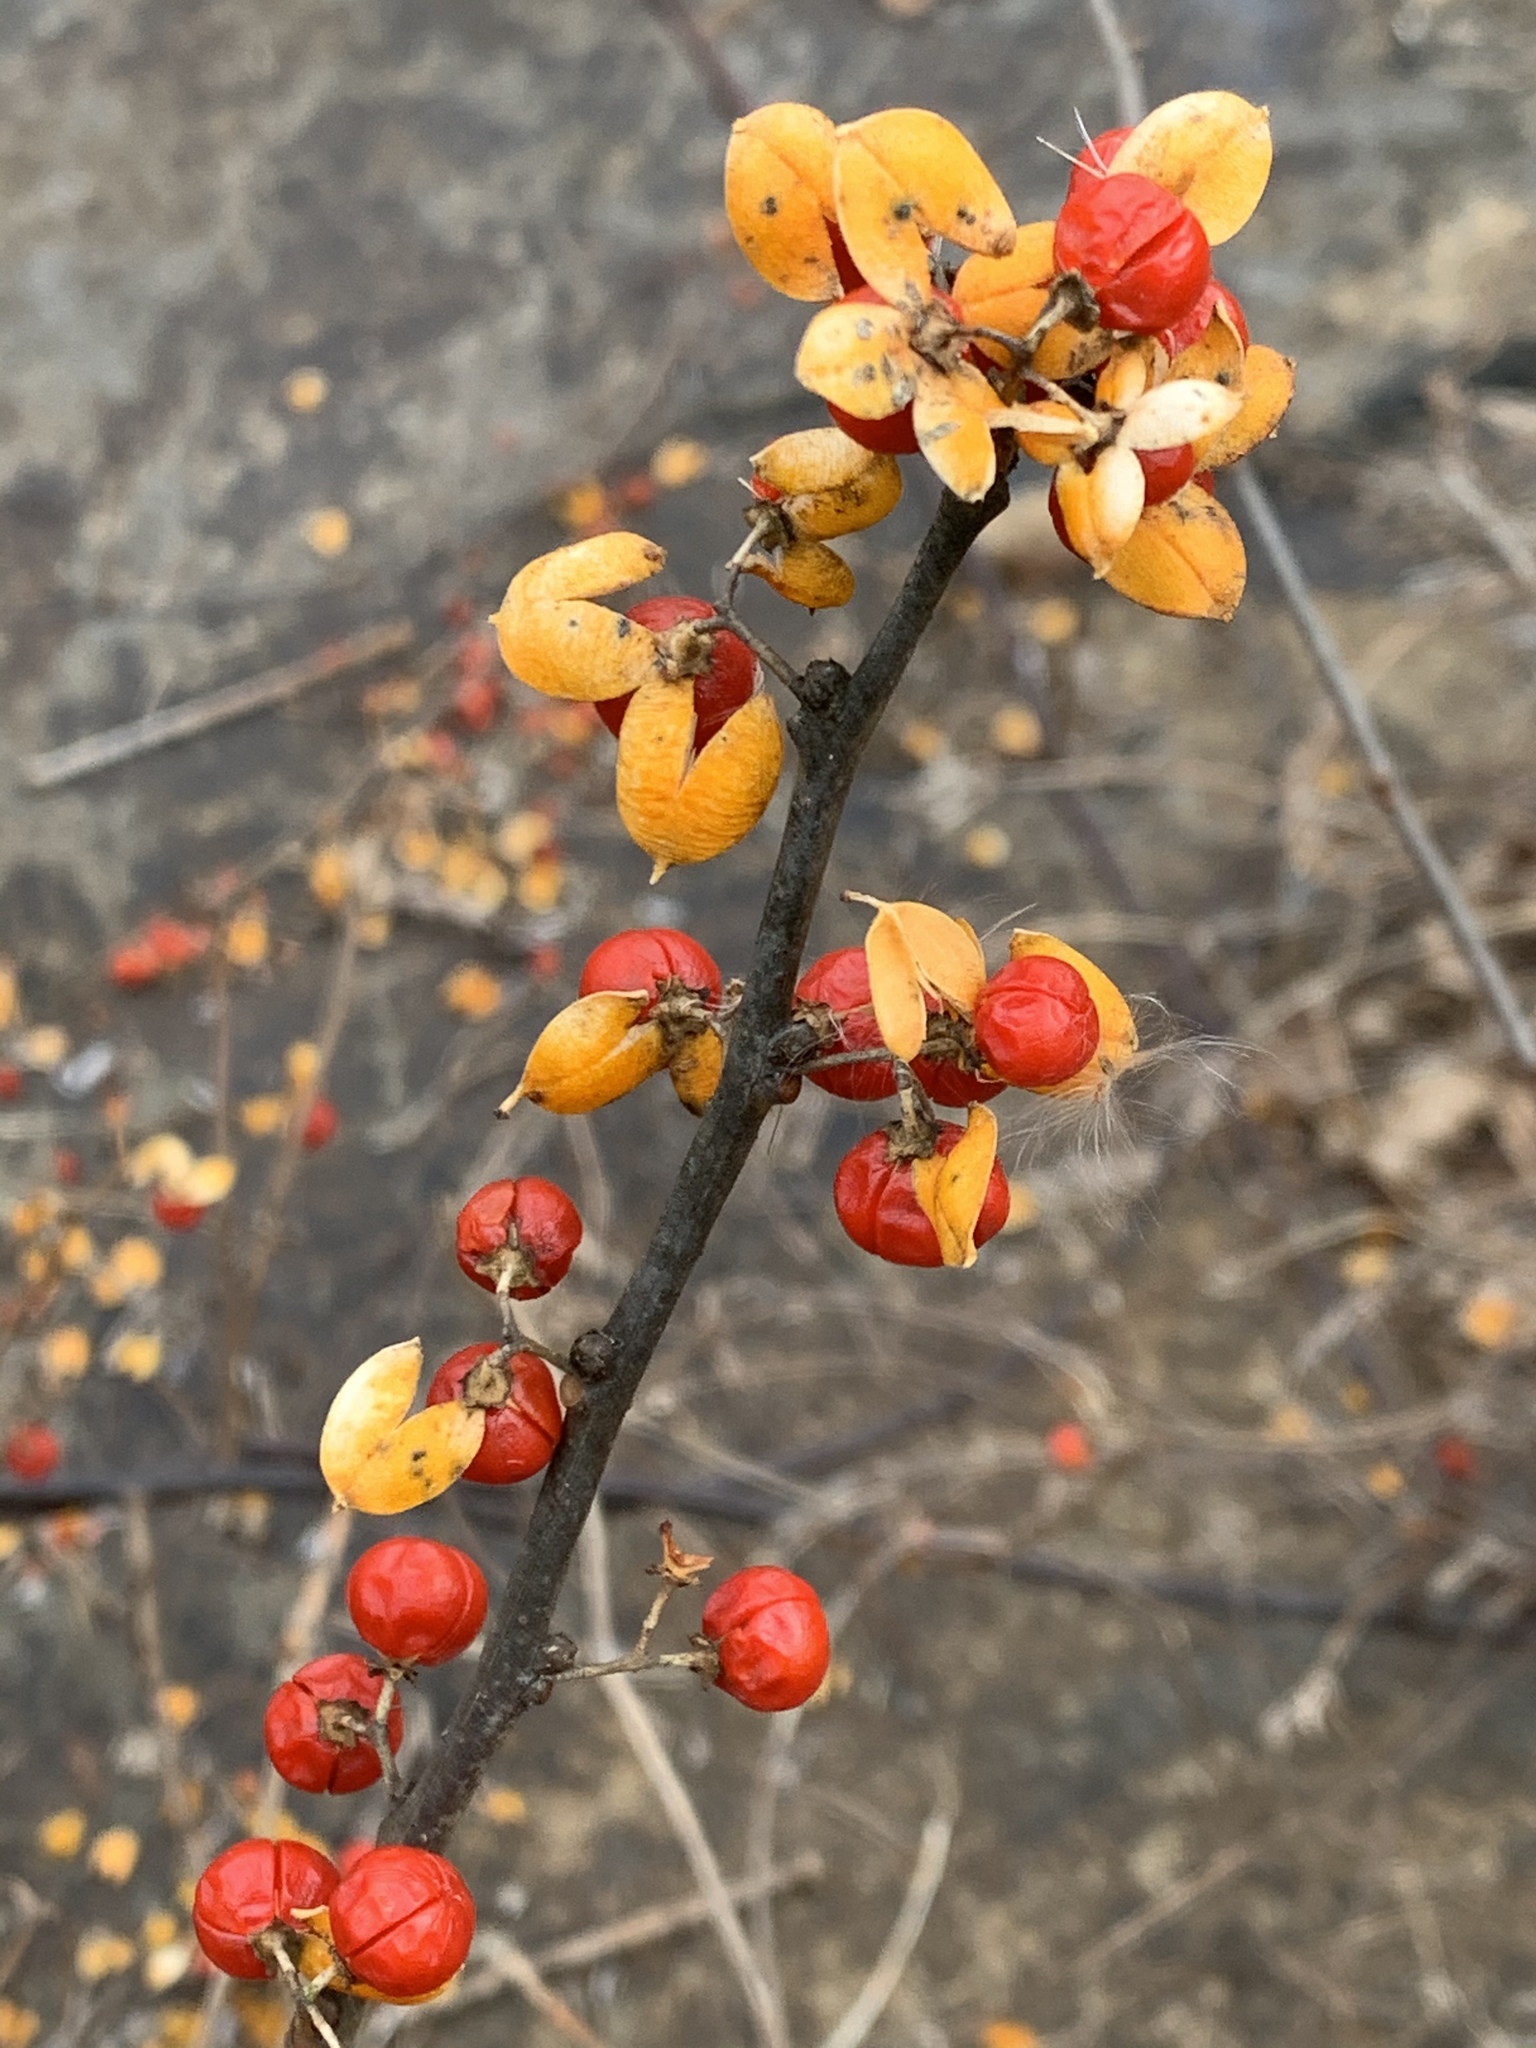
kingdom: Plantae
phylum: Tracheophyta
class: Magnoliopsida
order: Celastrales
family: Celastraceae
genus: Celastrus
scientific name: Celastrus orbiculatus
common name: Oriental bittersweet
